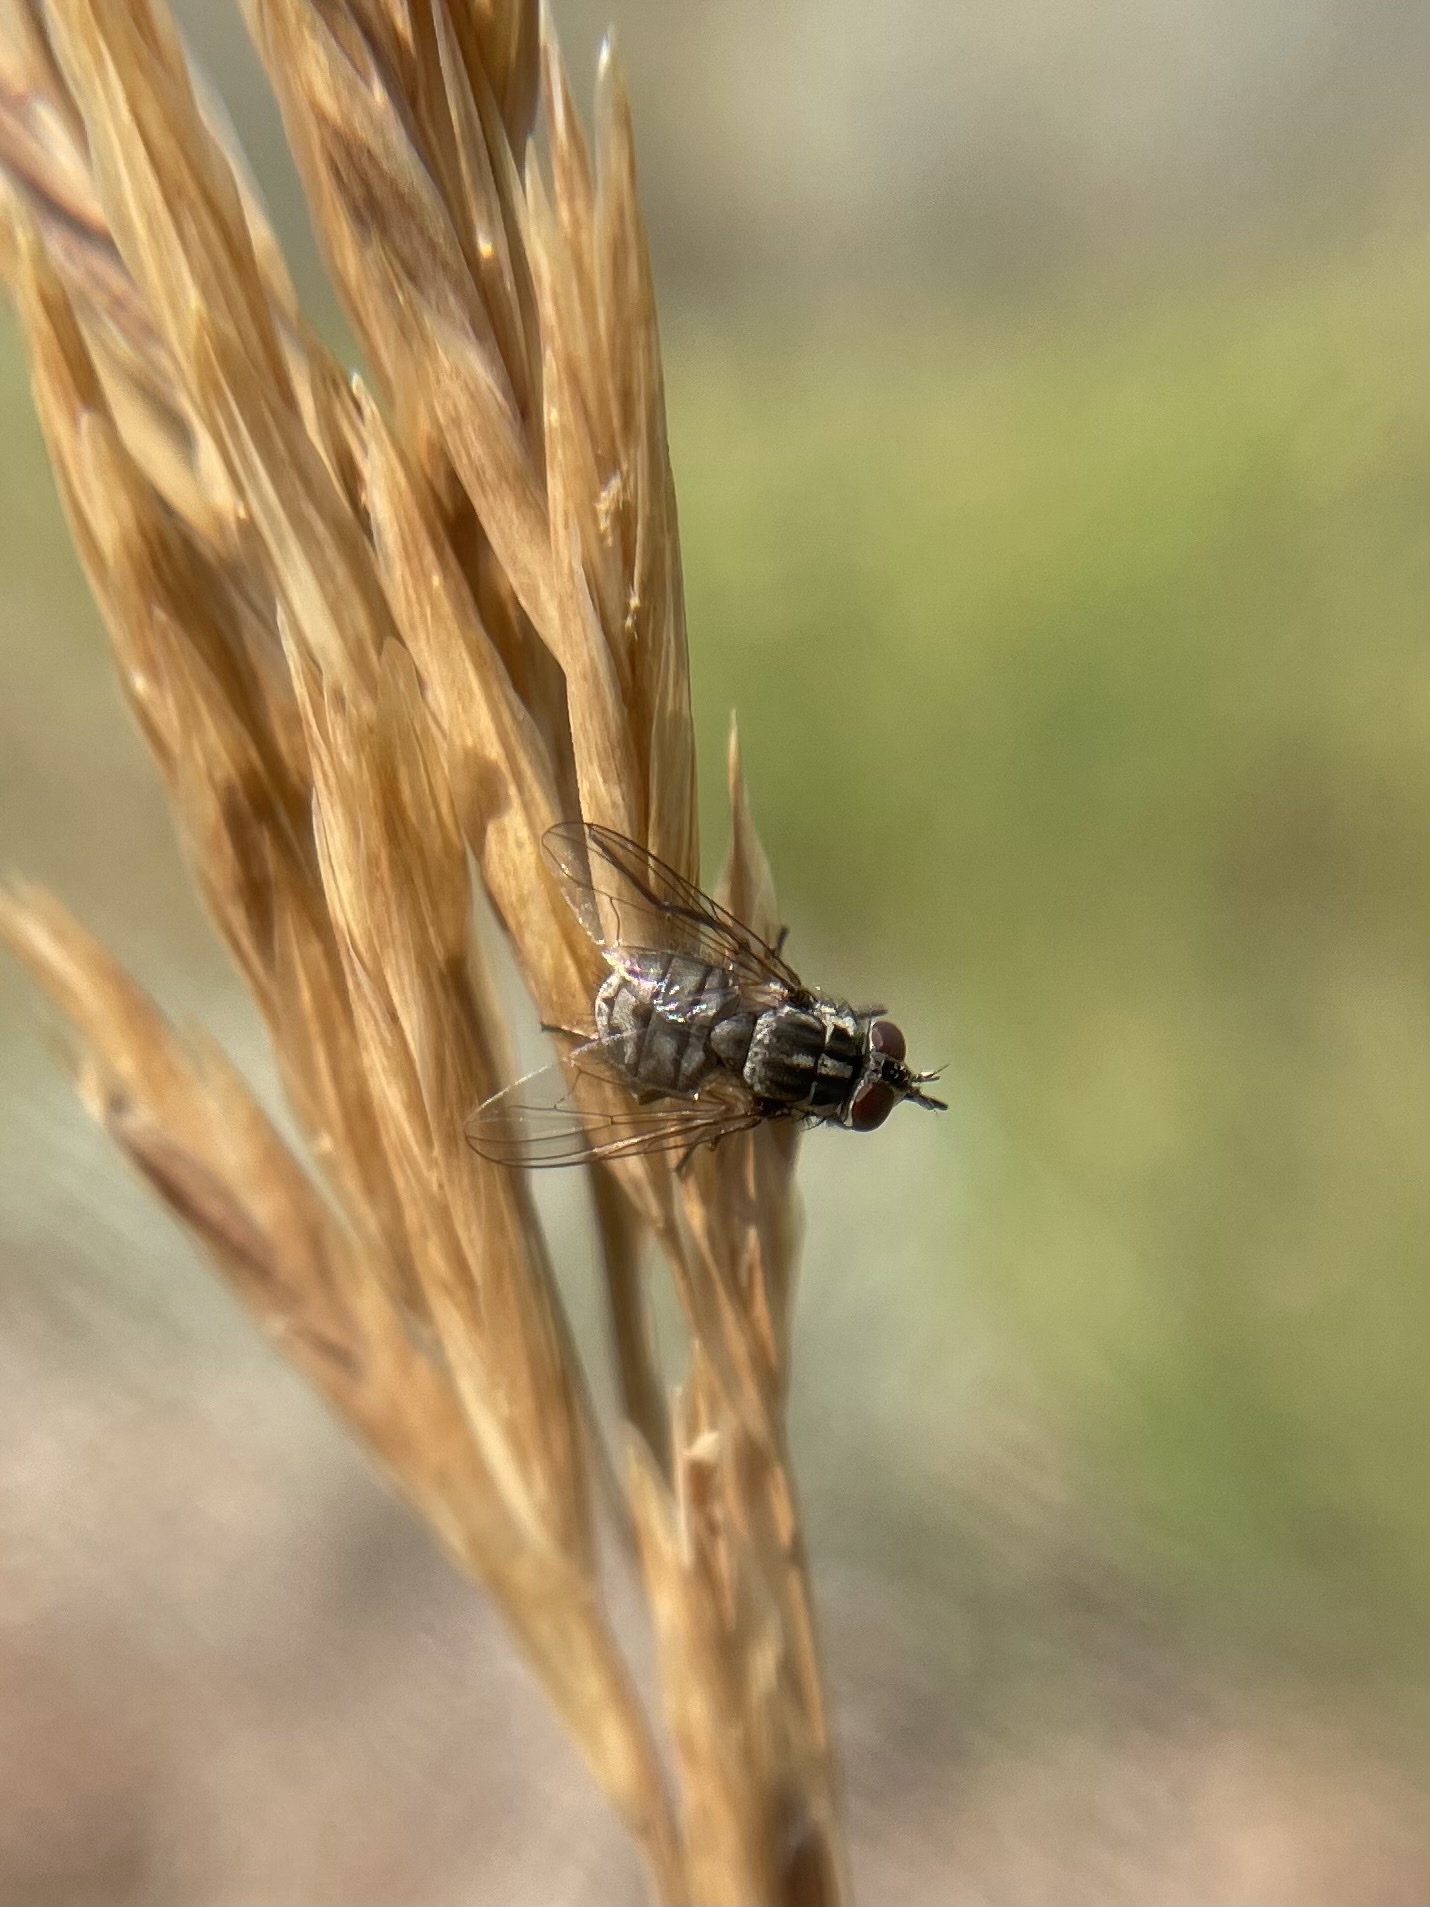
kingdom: Animalia
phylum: Arthropoda
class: Insecta
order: Diptera
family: Muscidae
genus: Stomoxys
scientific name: Stomoxys calcitrans
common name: Stable fly
